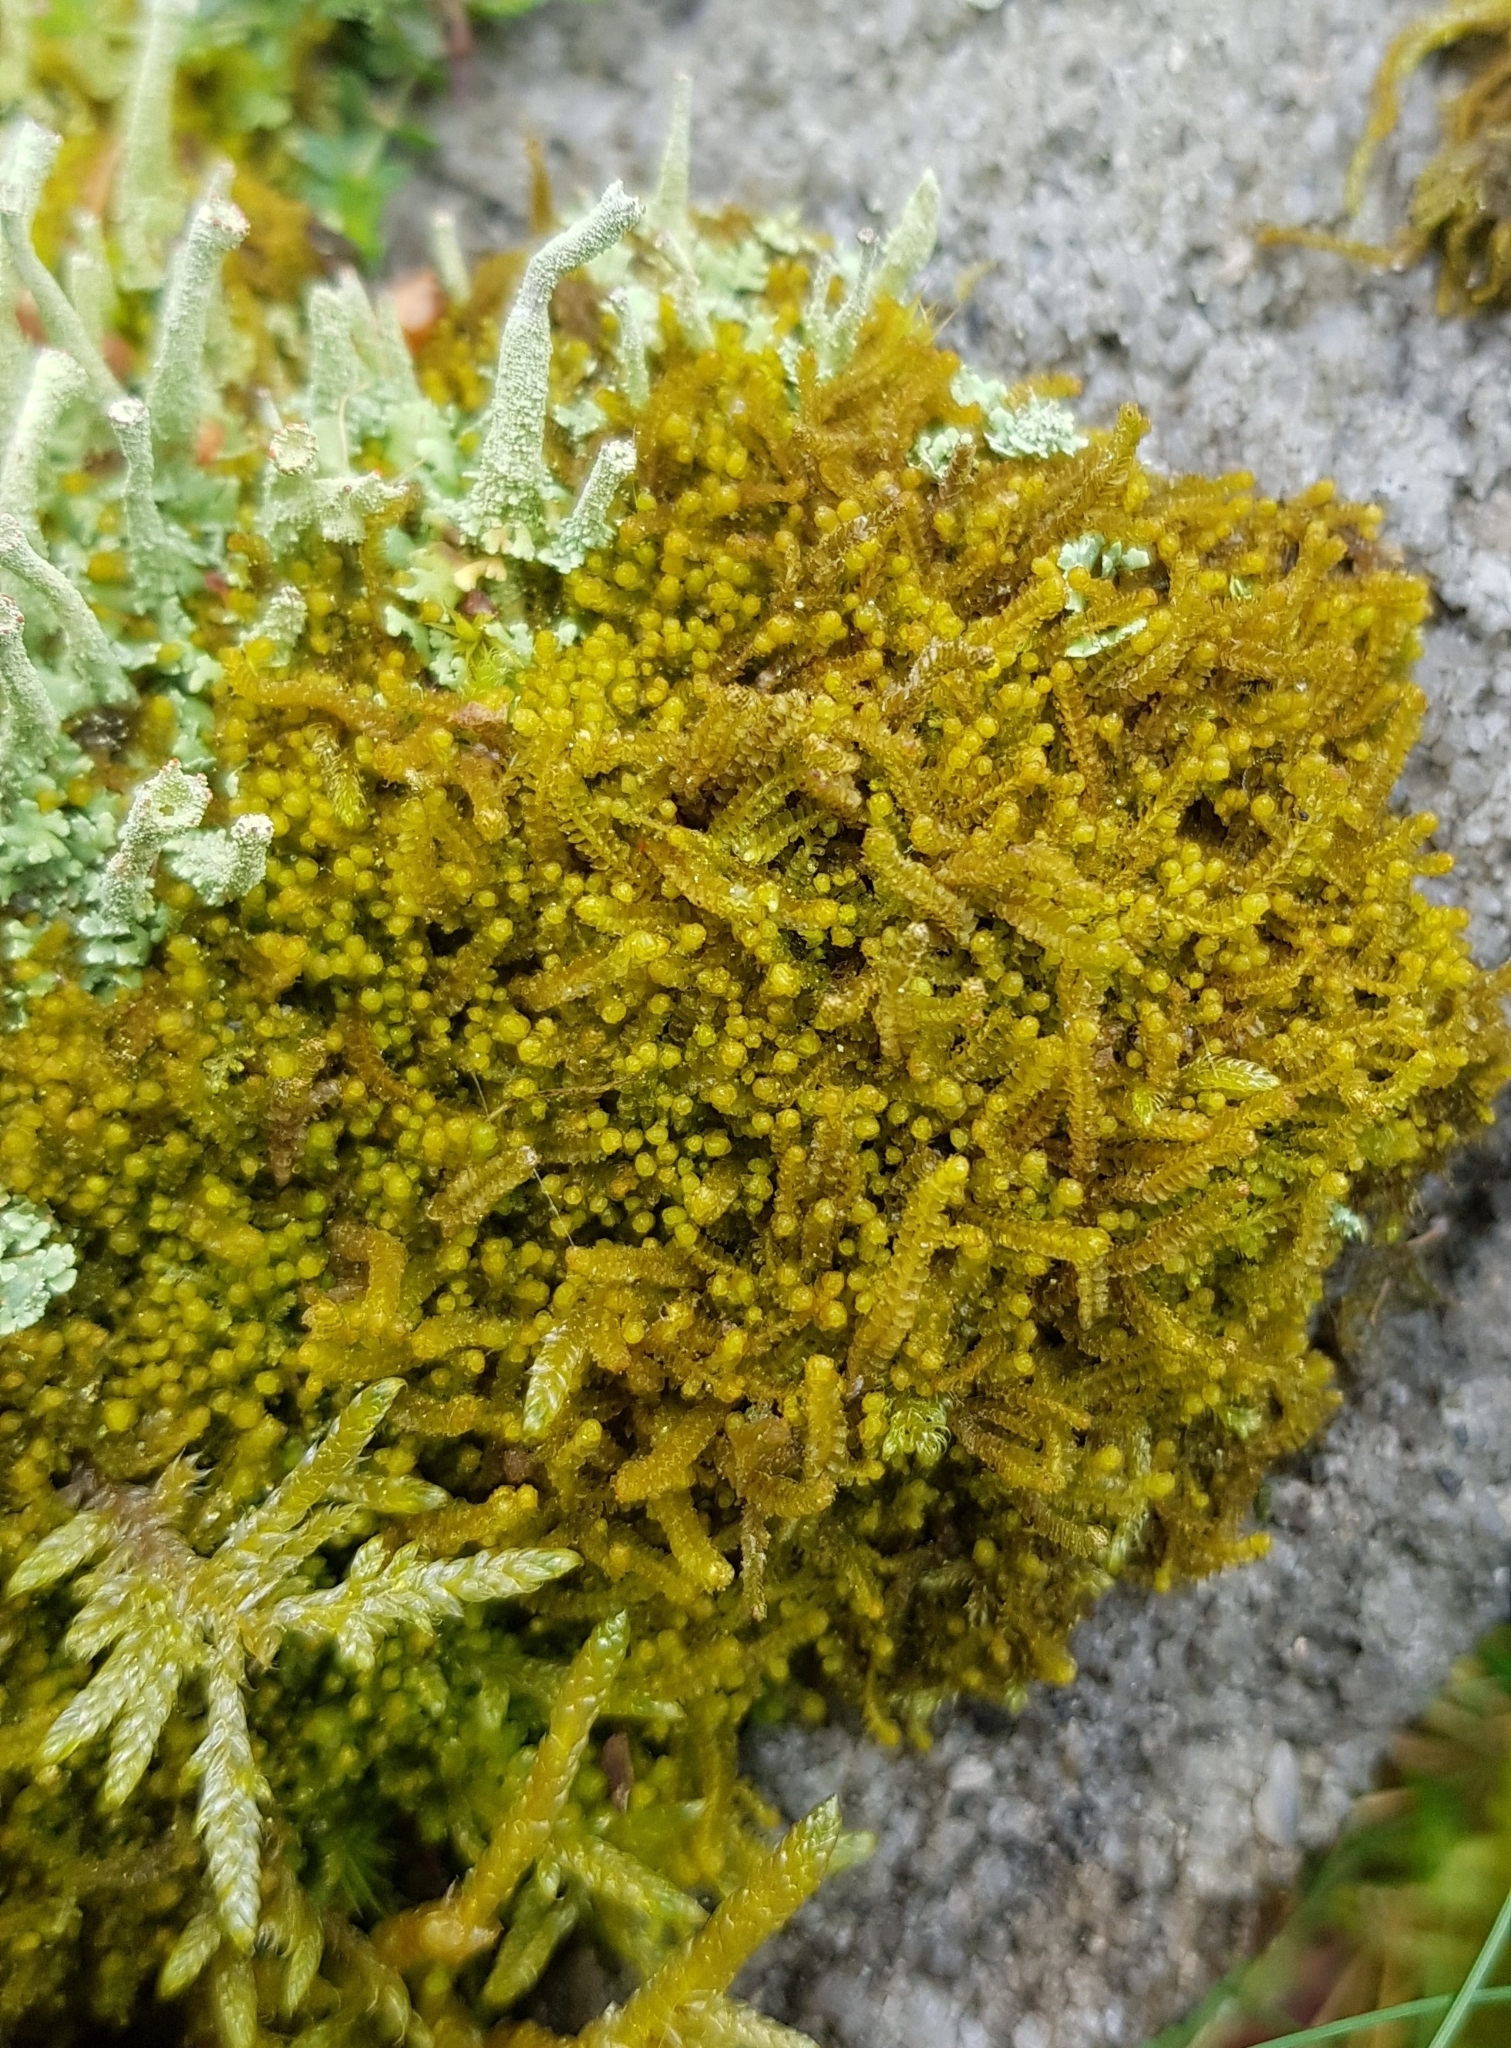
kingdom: Plantae
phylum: Marchantiophyta
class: Jungermanniopsida
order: Jungermanniales
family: Lophoziaceae
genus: Trilophozia
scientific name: Trilophozia quinquedentata
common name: Large notchwort
